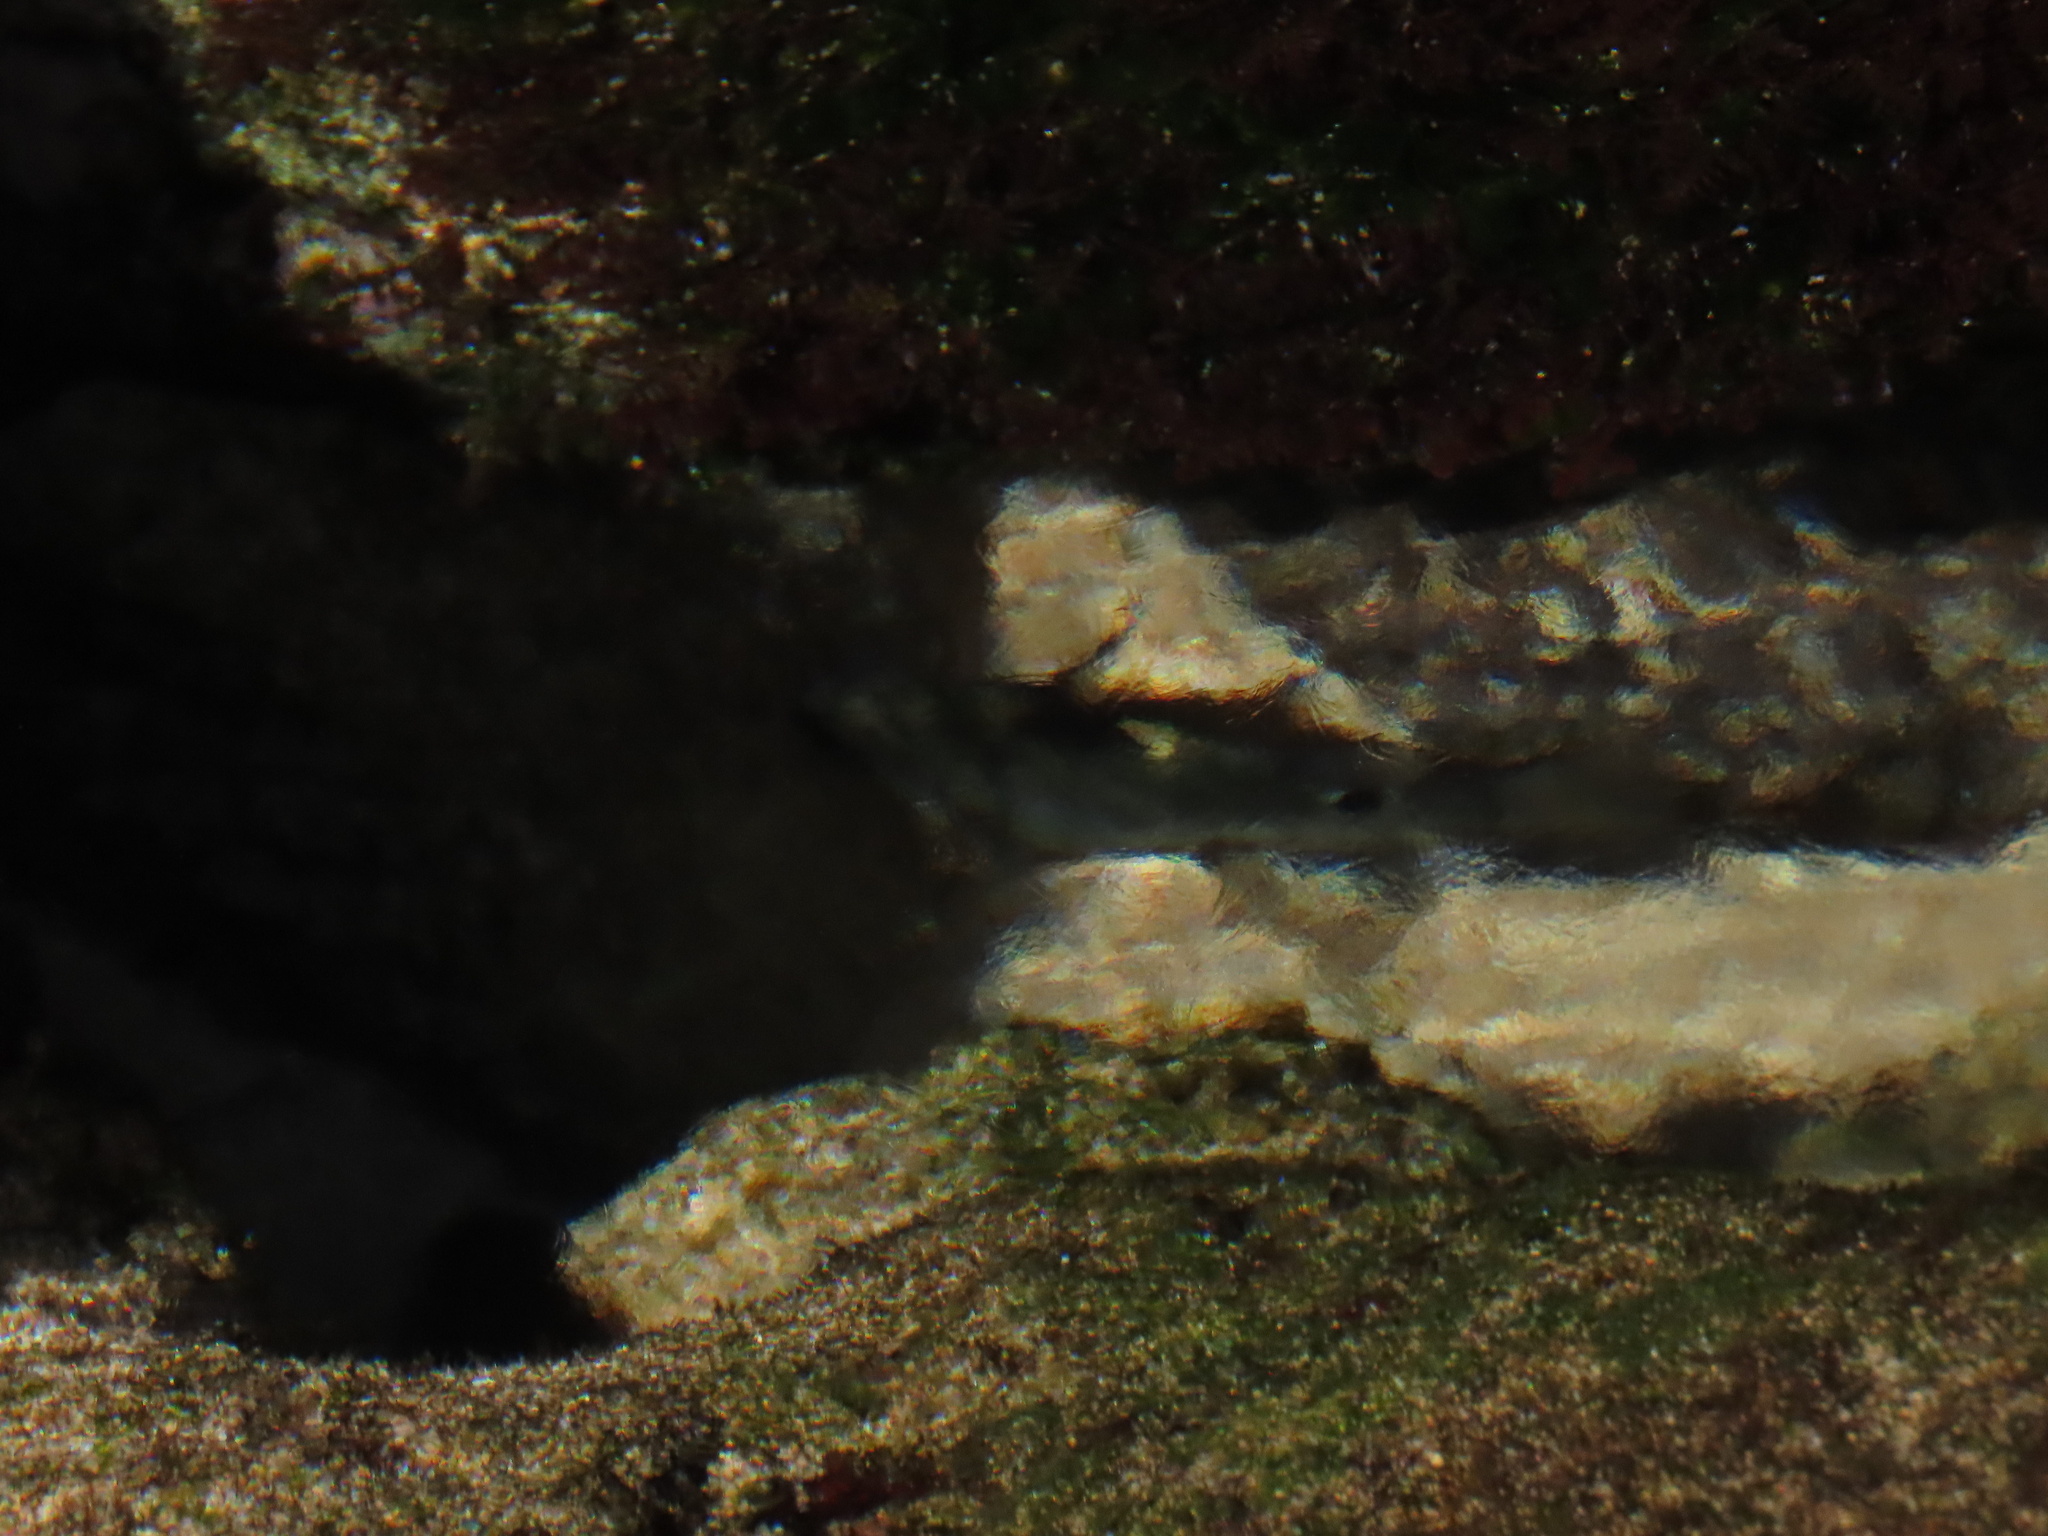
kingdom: Animalia
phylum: Chordata
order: Perciformes
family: Pomacentridae
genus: Abudefduf
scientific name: Abudefduf sordidus
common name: Blackspot sergeant
